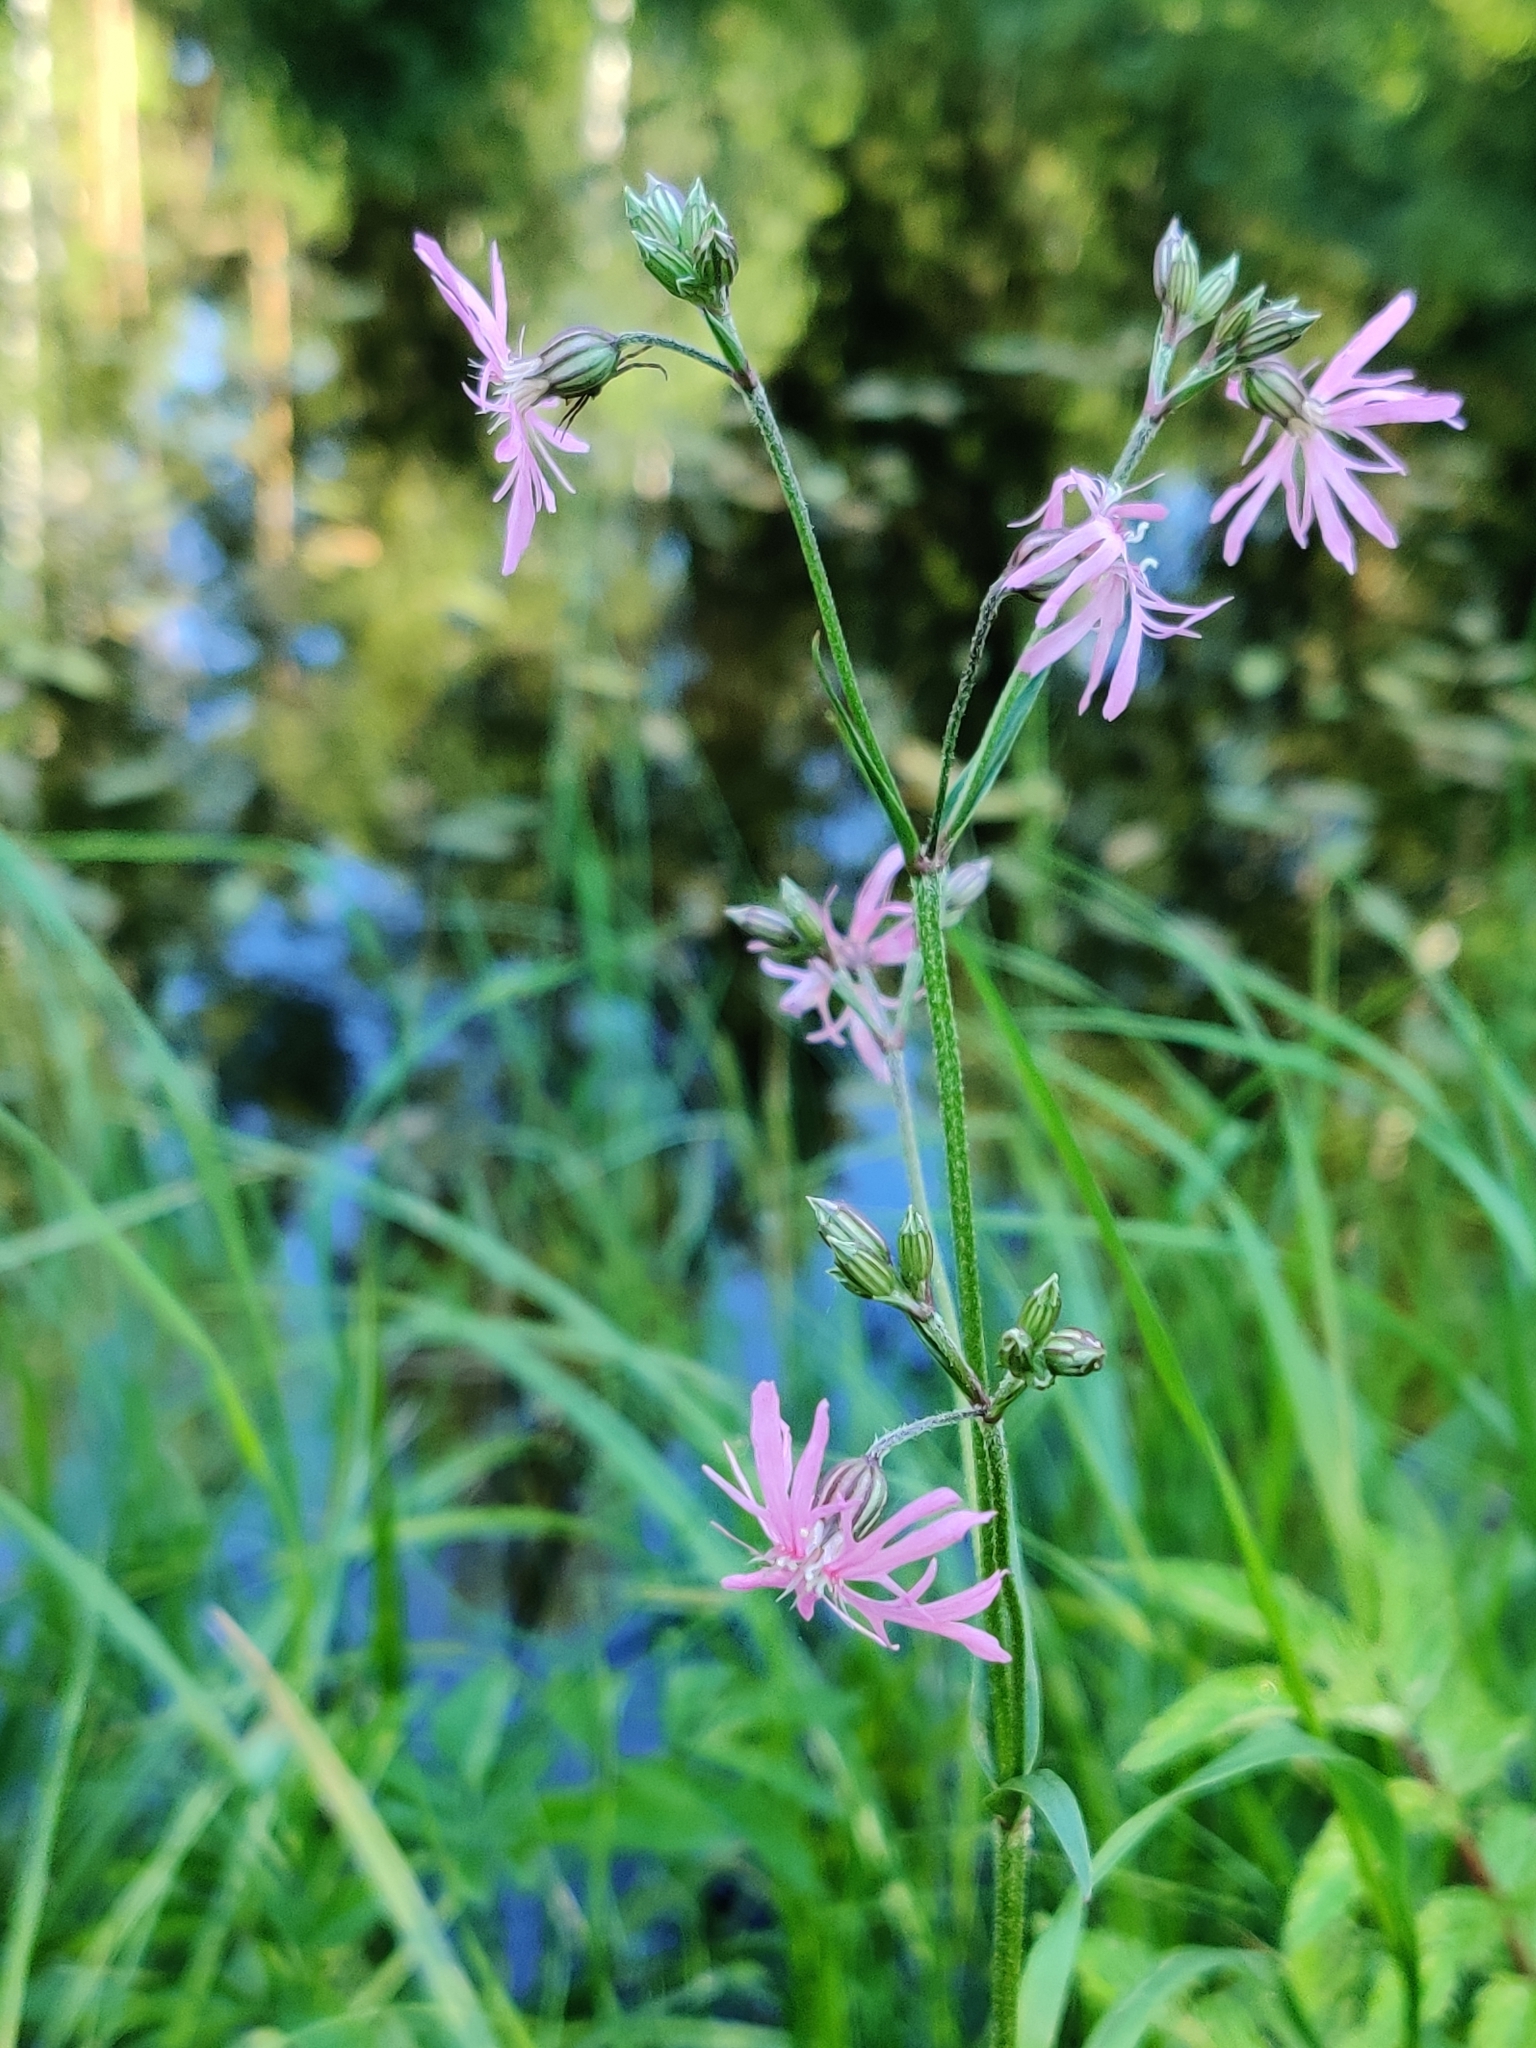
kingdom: Plantae
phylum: Tracheophyta
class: Magnoliopsida
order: Caryophyllales
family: Caryophyllaceae
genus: Silene
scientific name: Silene flos-cuculi
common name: Ragged-robin
